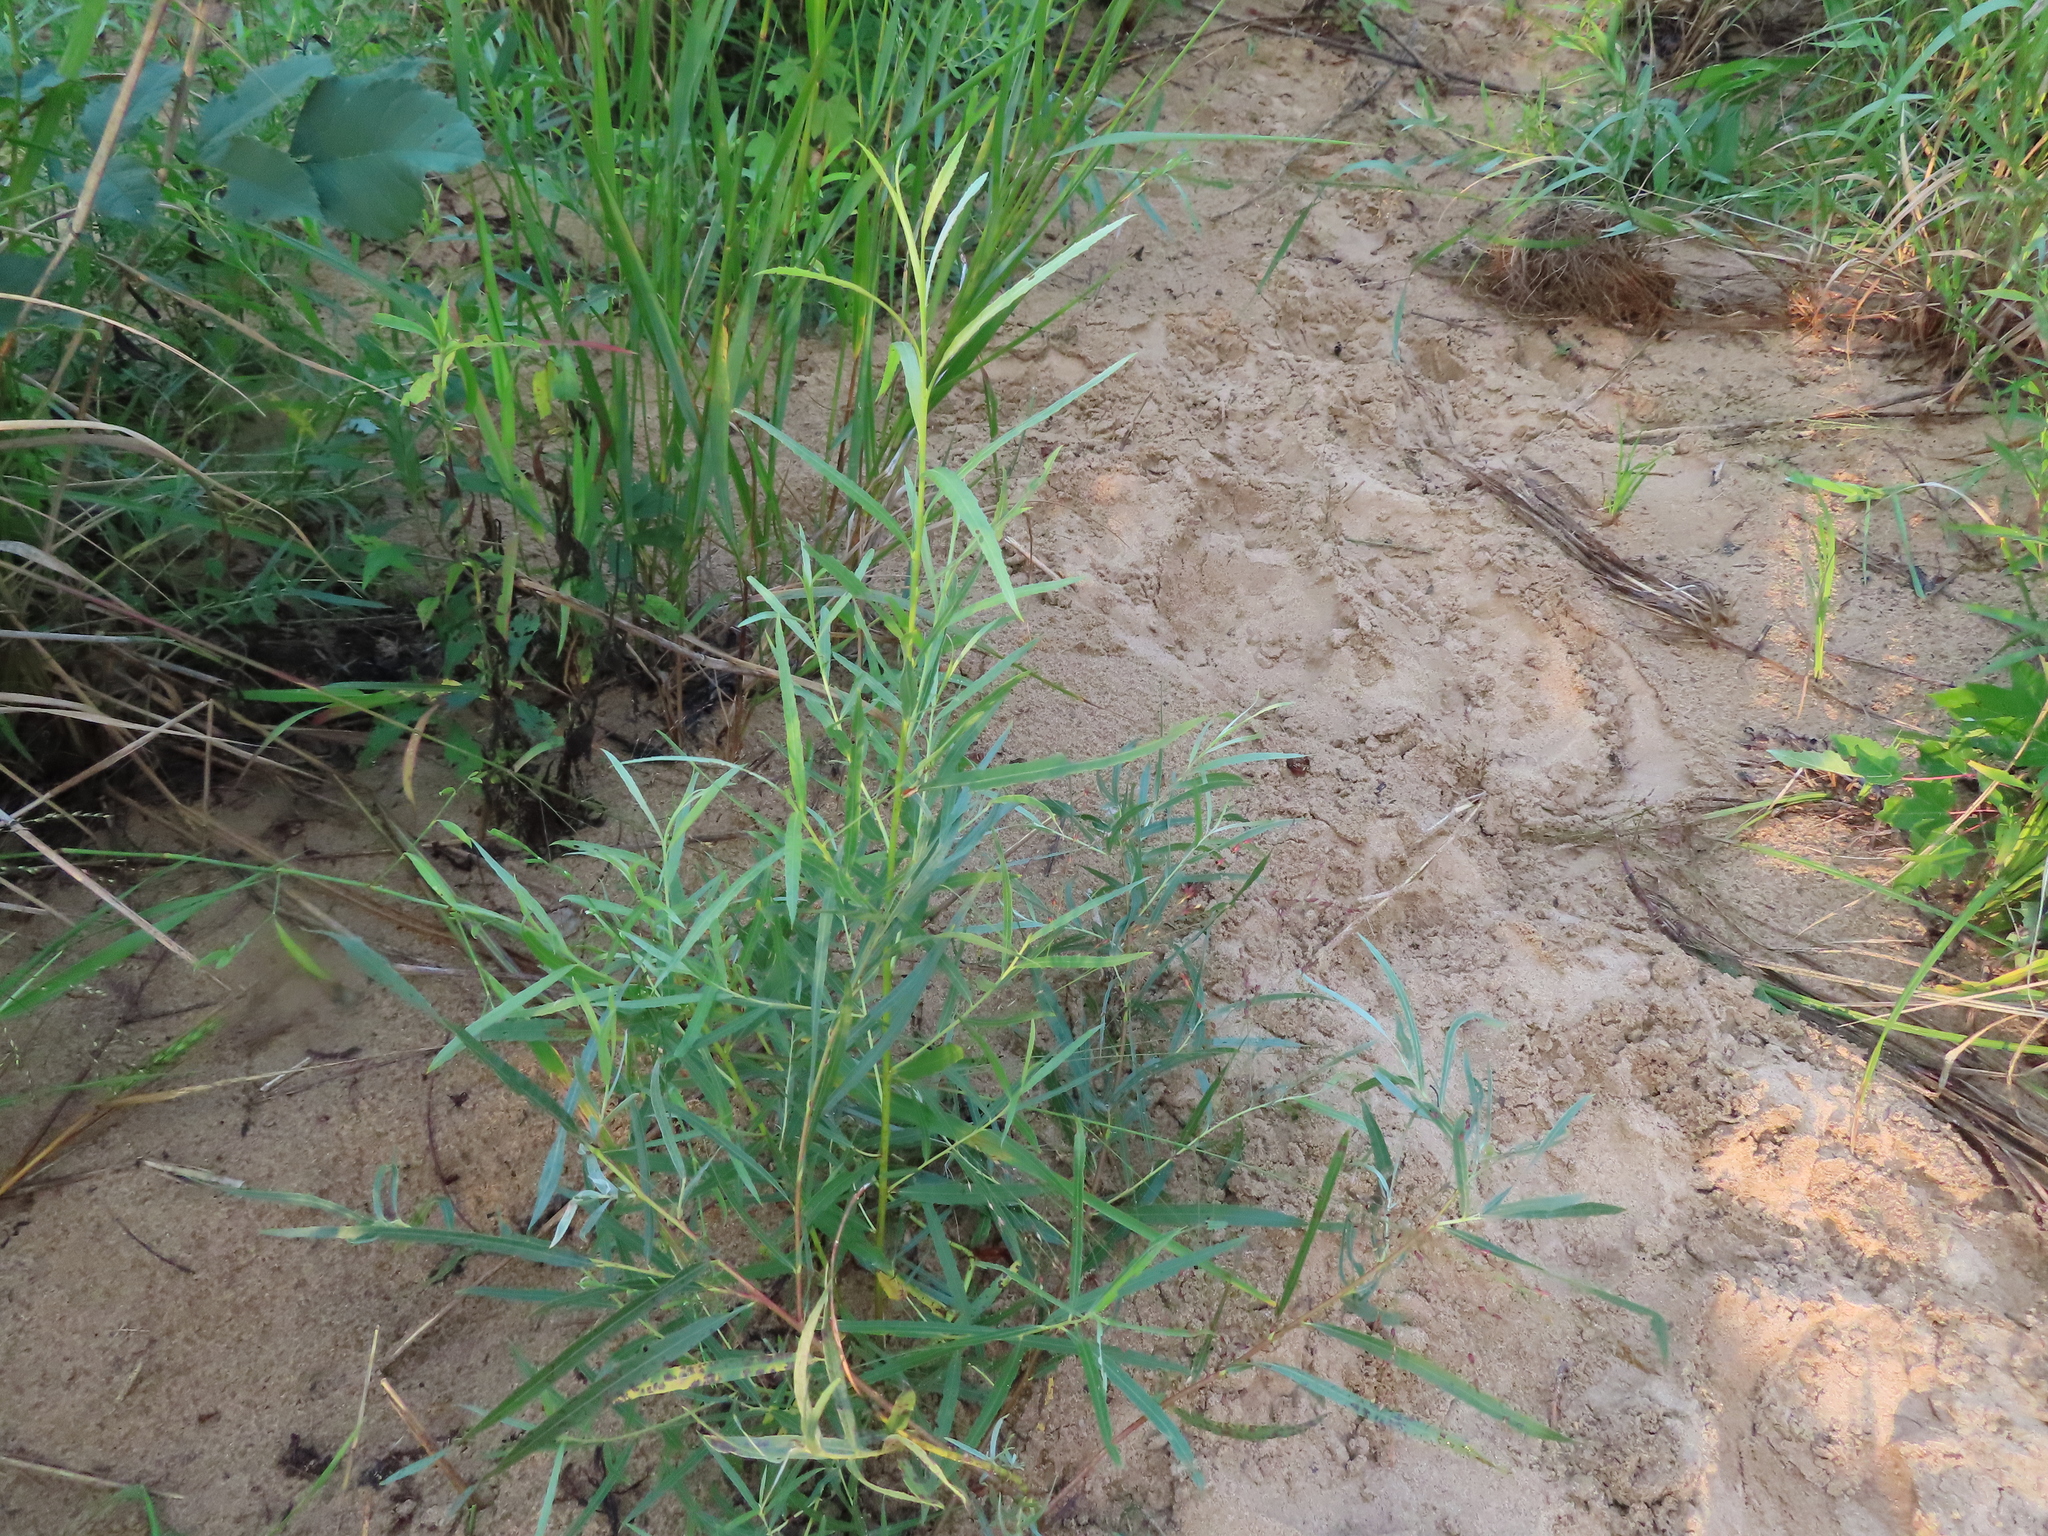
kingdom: Plantae
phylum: Tracheophyta
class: Magnoliopsida
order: Malpighiales
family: Salicaceae
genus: Salix
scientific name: Salix interior
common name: Sandbar willow
